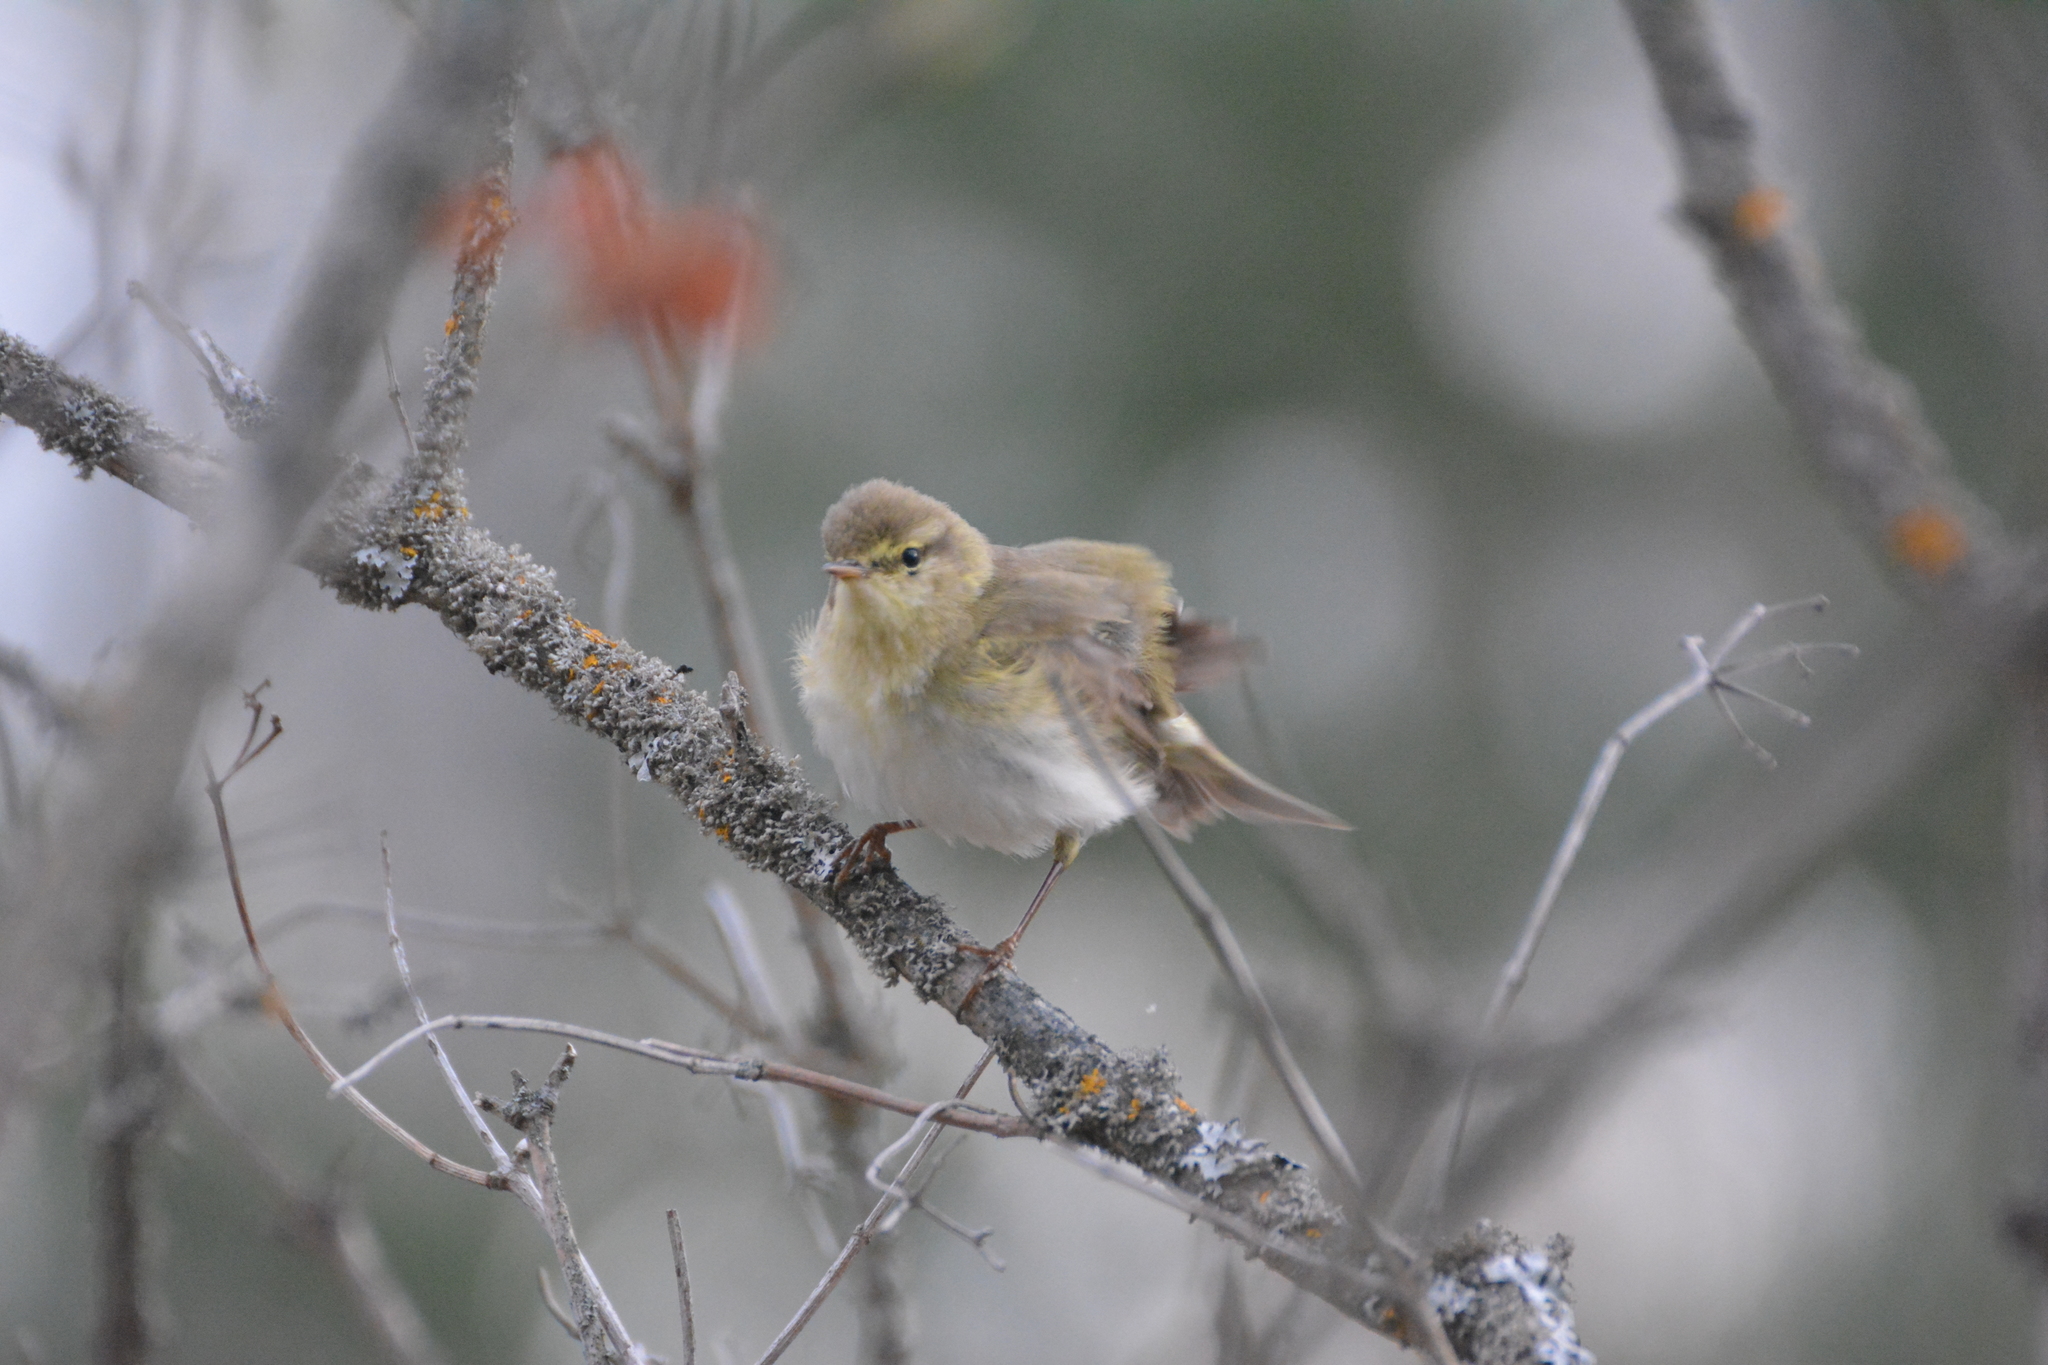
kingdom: Animalia
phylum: Chordata
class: Aves
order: Passeriformes
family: Phylloscopidae
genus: Phylloscopus
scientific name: Phylloscopus trochilus
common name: Willow warbler
